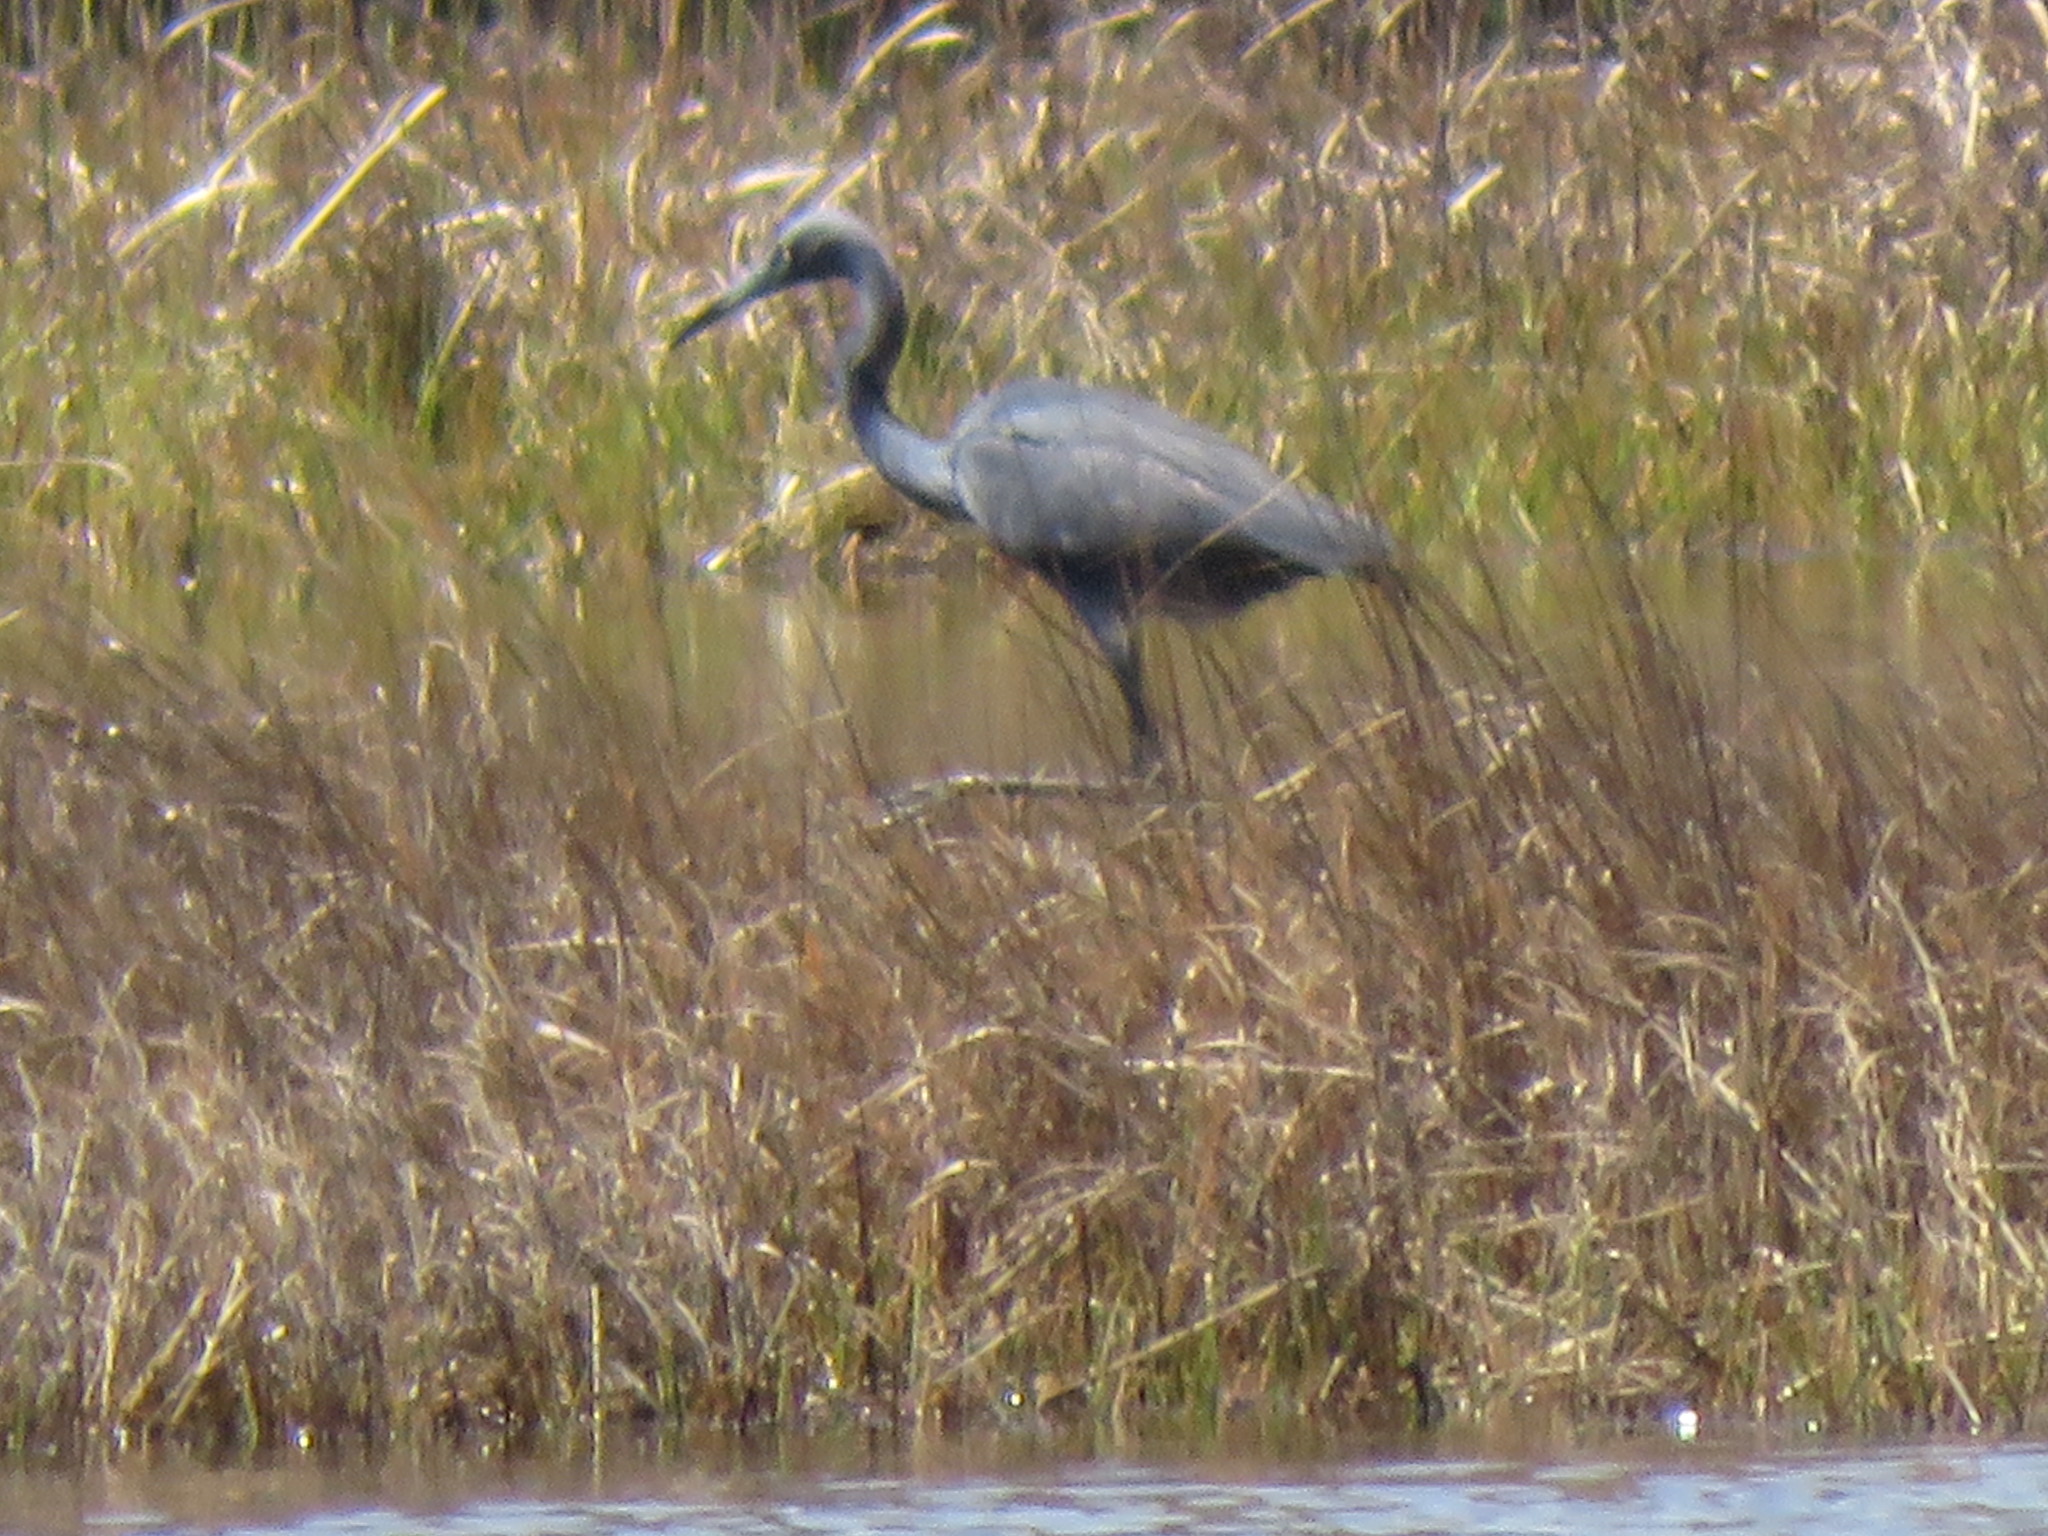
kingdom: Animalia
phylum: Chordata
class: Aves
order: Pelecaniformes
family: Ardeidae
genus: Egretta
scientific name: Egretta
